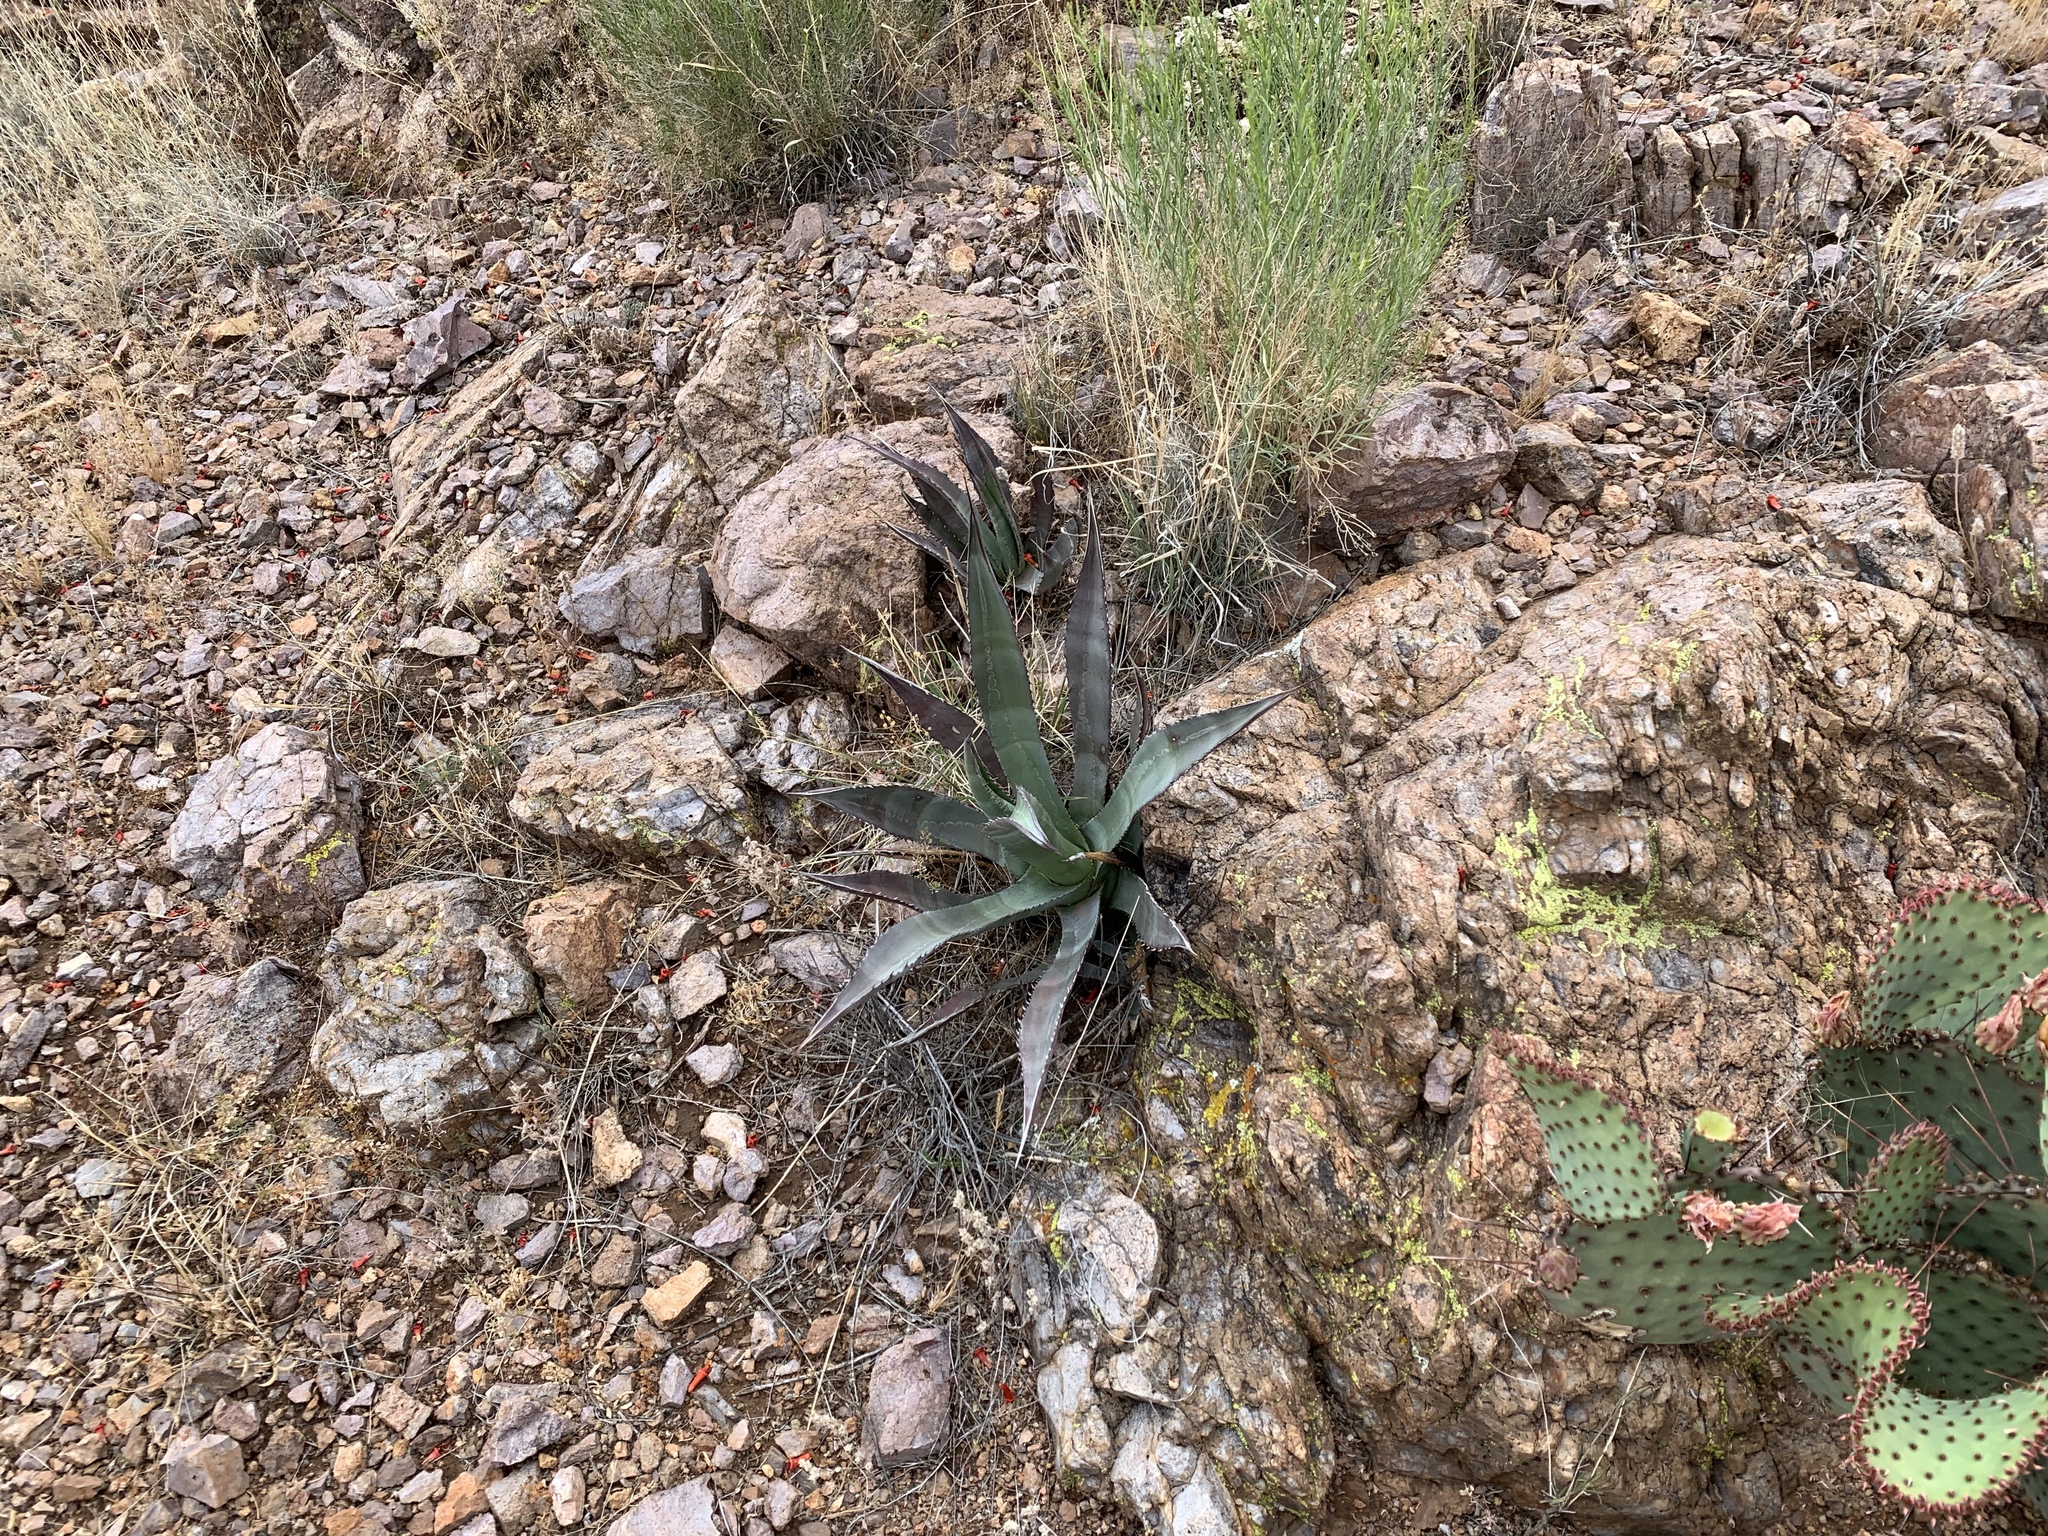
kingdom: Plantae
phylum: Tracheophyta
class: Liliopsida
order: Asparagales
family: Asparagaceae
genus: Agave
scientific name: Agave palmeri
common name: Palmer agave
